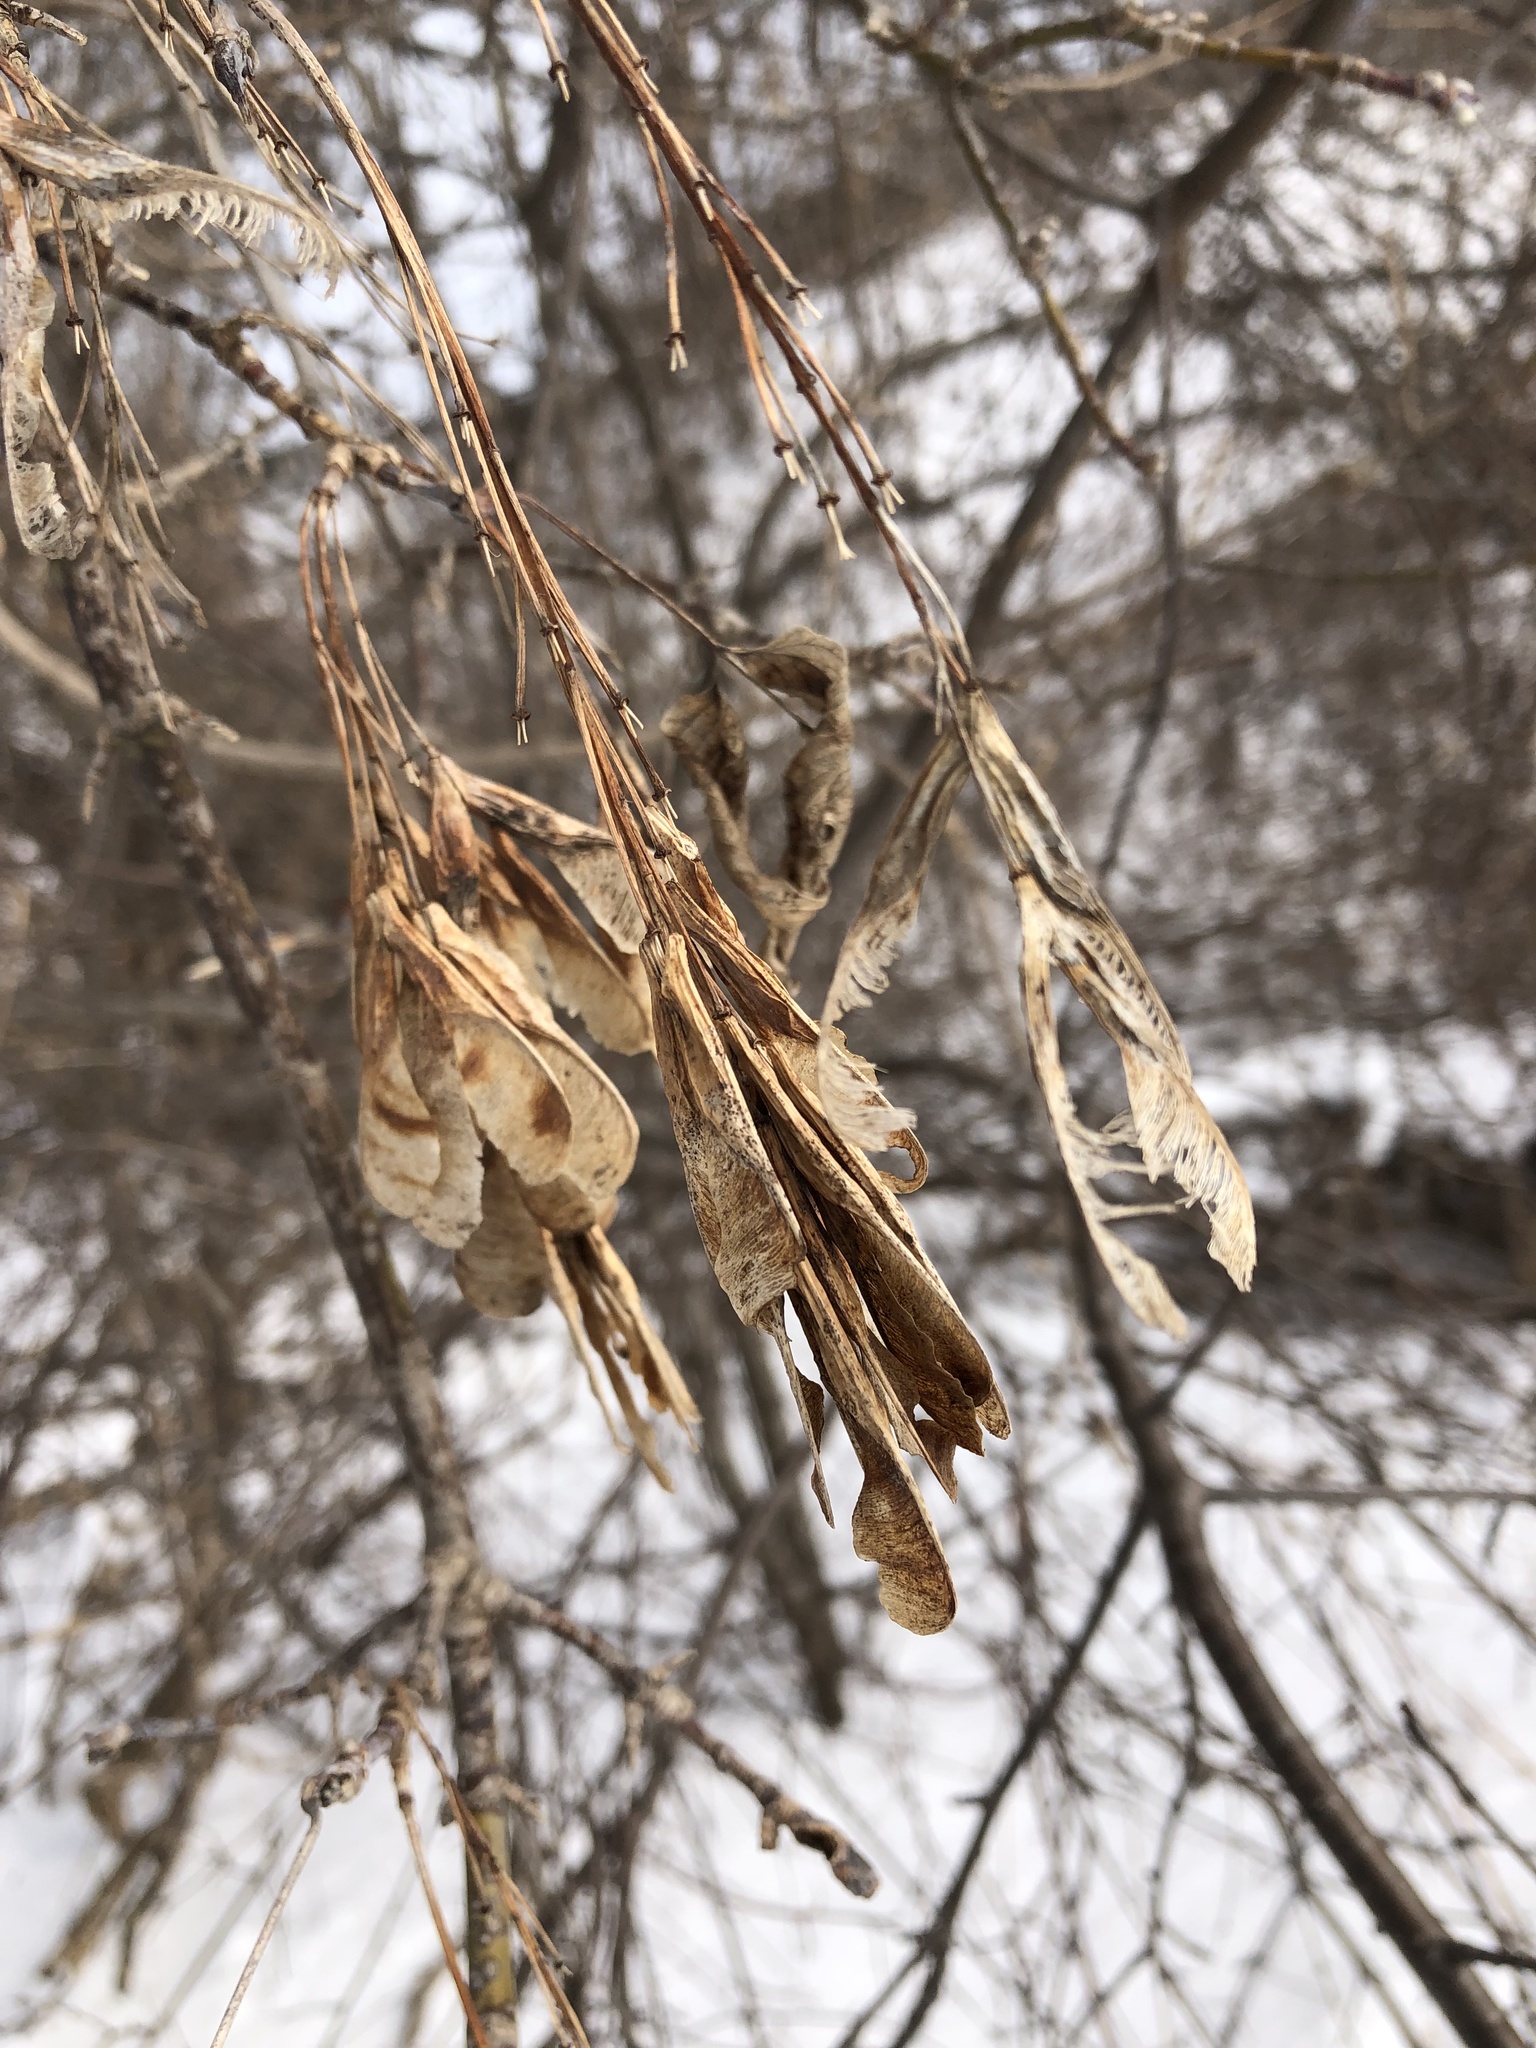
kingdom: Plantae
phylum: Tracheophyta
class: Magnoliopsida
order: Sapindales
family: Sapindaceae
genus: Acer
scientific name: Acer negundo
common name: Ashleaf maple
